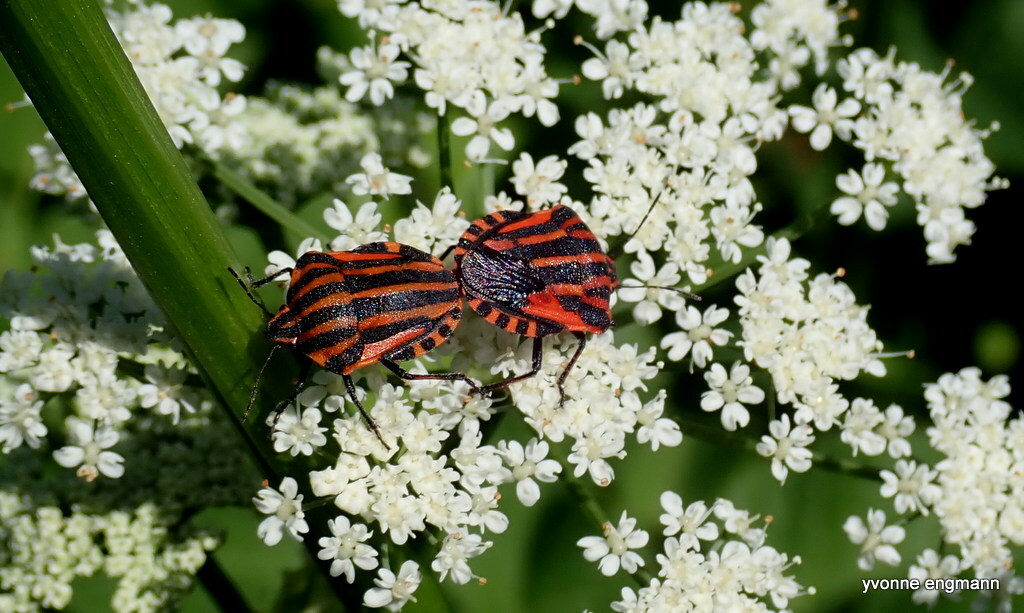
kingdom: Animalia
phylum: Arthropoda
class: Insecta
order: Hemiptera
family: Pentatomidae
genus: Graphosoma
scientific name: Graphosoma italicum
